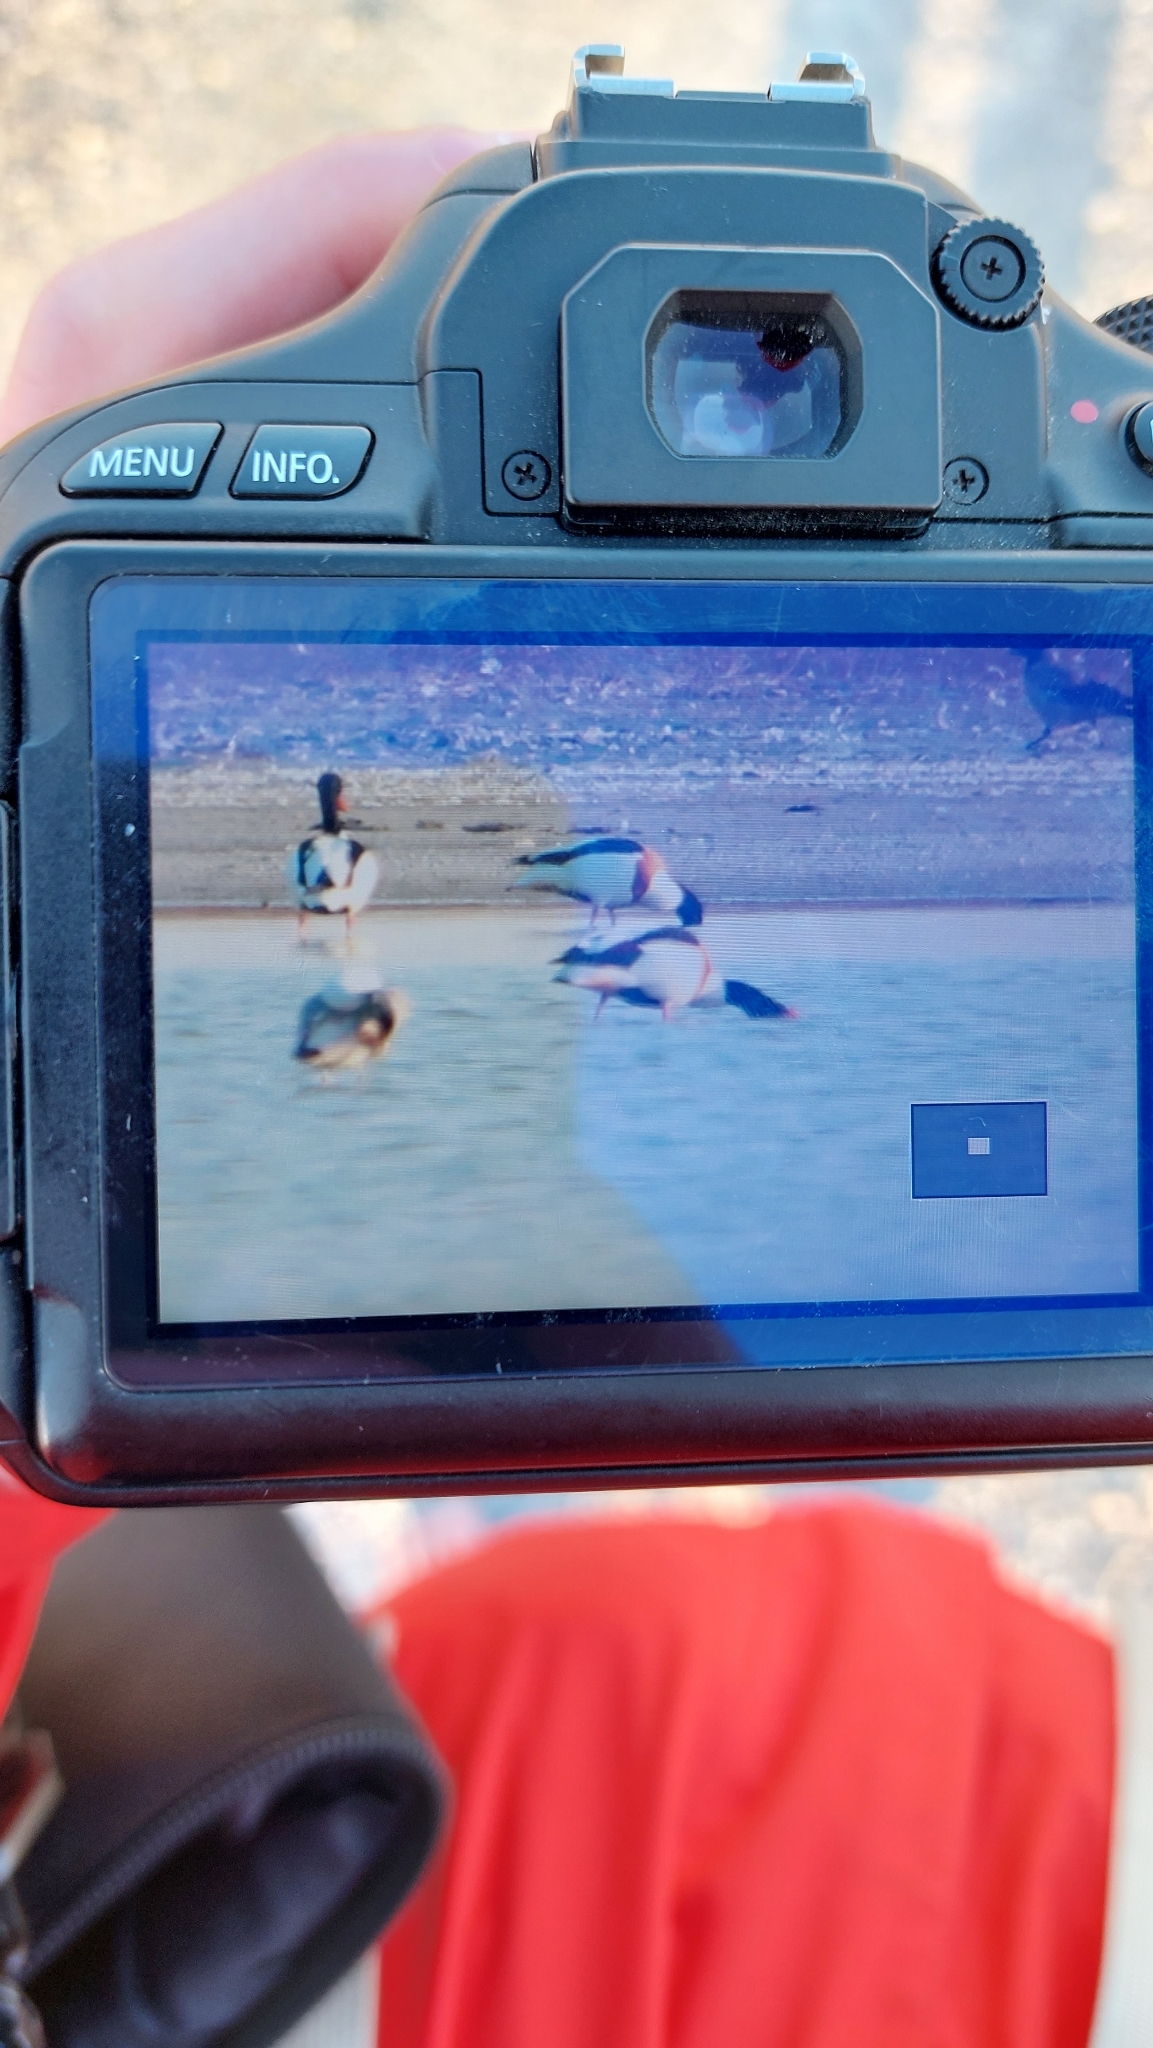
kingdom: Animalia
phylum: Chordata
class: Aves
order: Anseriformes
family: Anatidae
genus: Tadorna
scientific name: Tadorna tadorna
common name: Common shelduck
